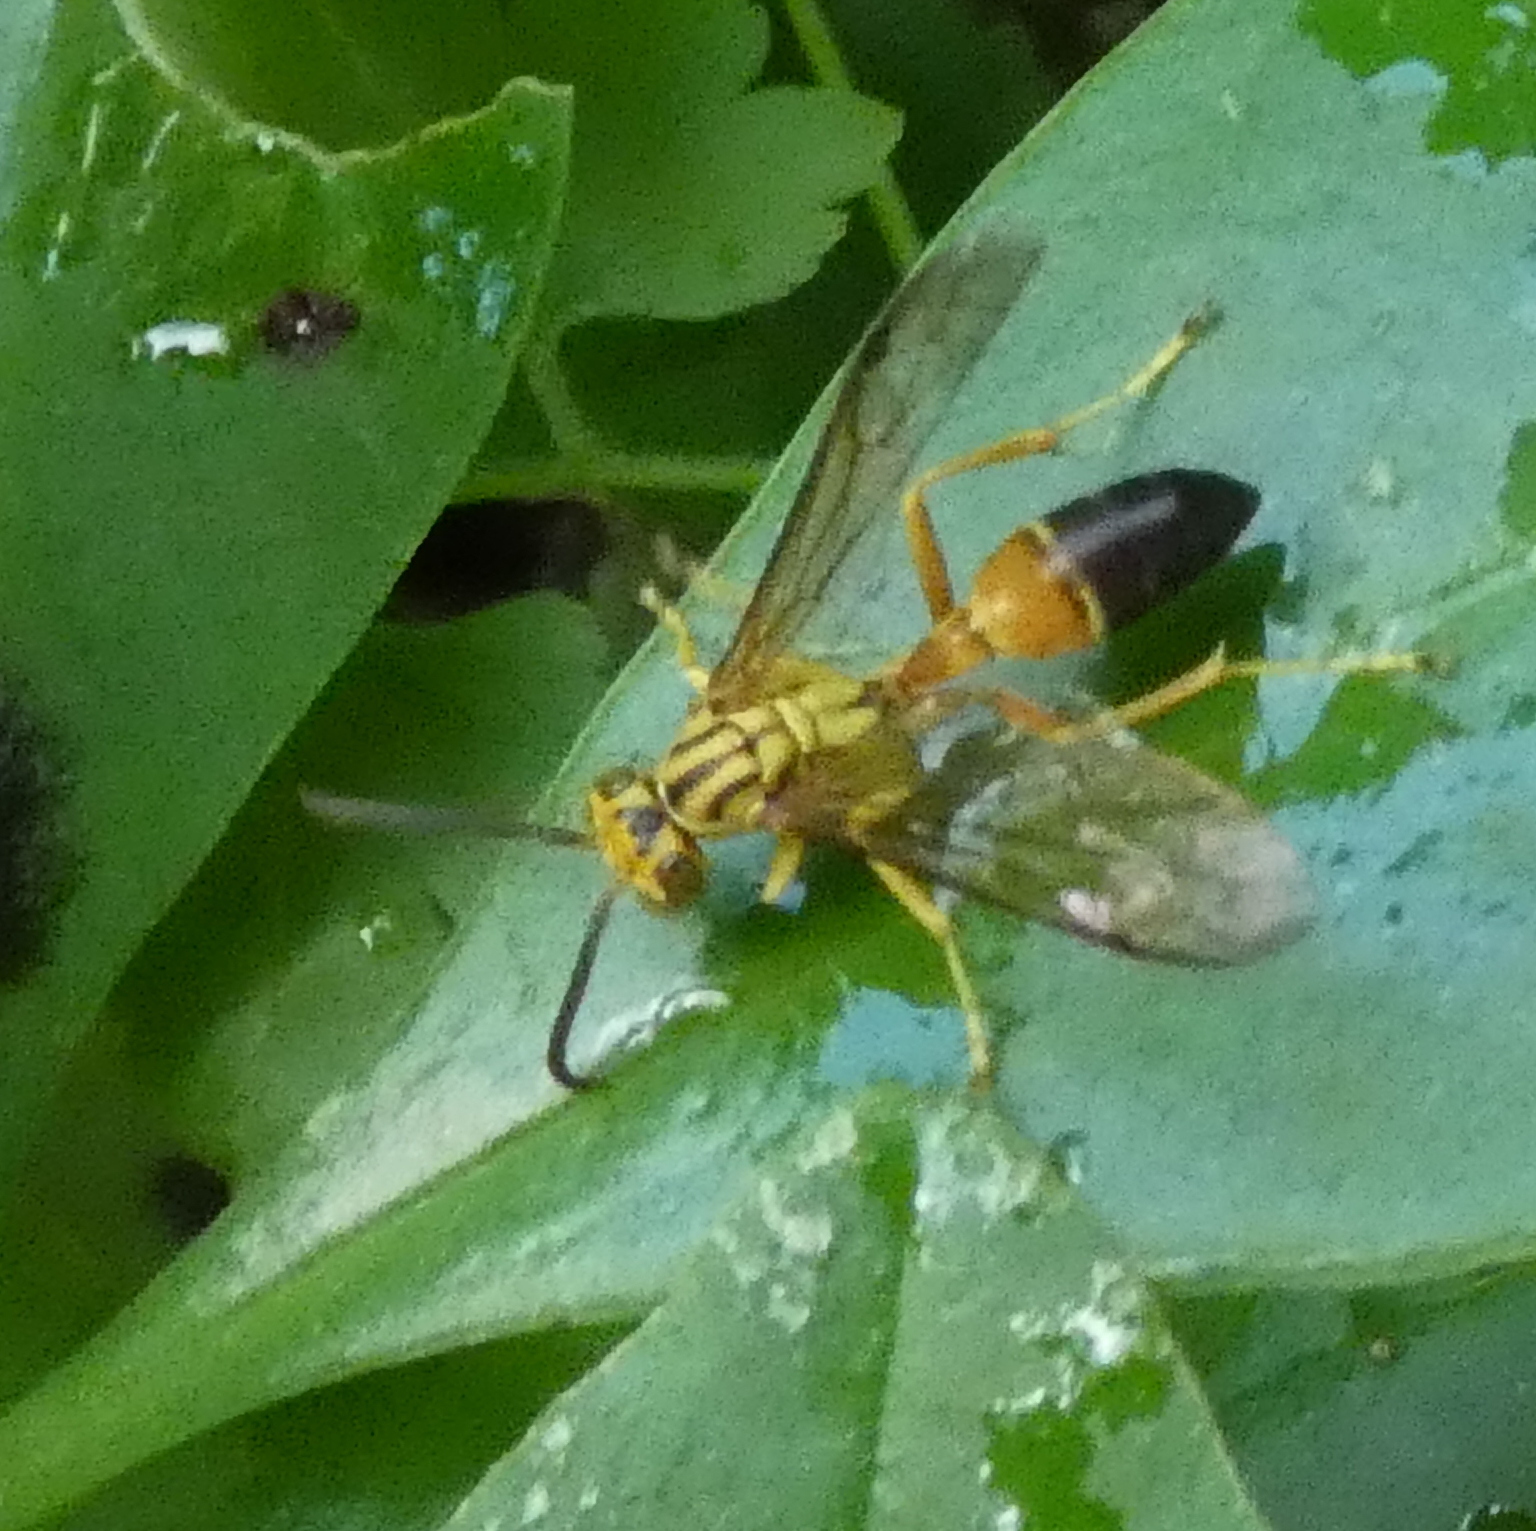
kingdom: Animalia
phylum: Arthropoda
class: Insecta
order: Hymenoptera
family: Vespidae
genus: Agelaia
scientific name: Agelaia pallipes
